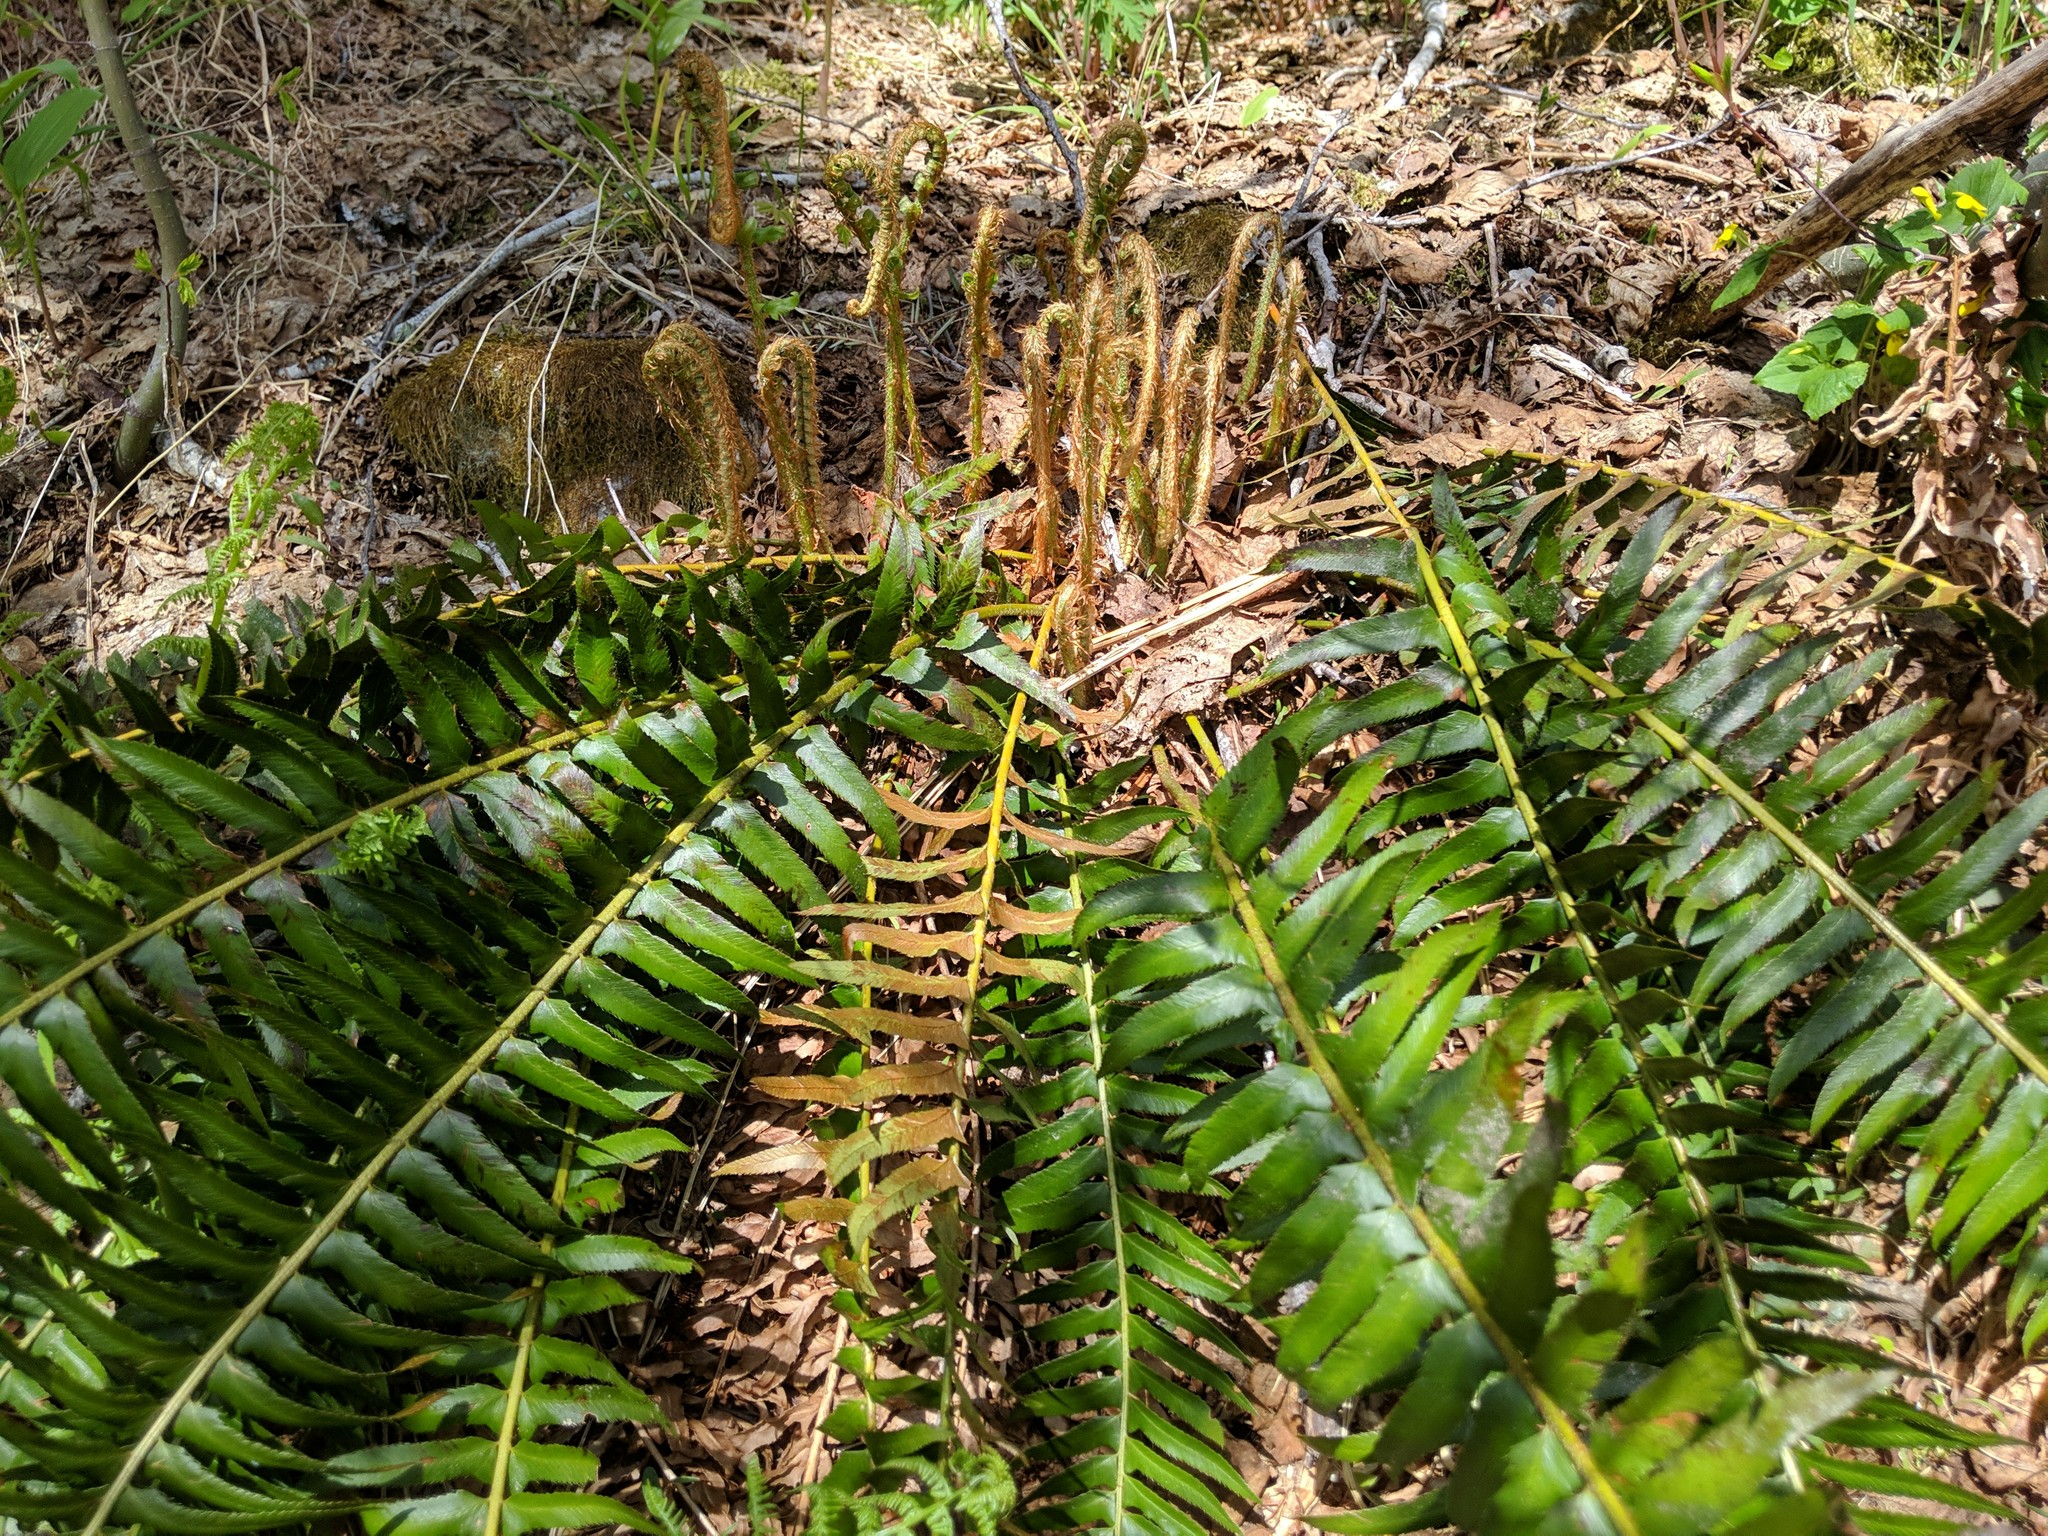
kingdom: Plantae
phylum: Tracheophyta
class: Polypodiopsida
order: Polypodiales
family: Dryopteridaceae
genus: Polystichum
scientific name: Polystichum munitum
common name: Western sword-fern
